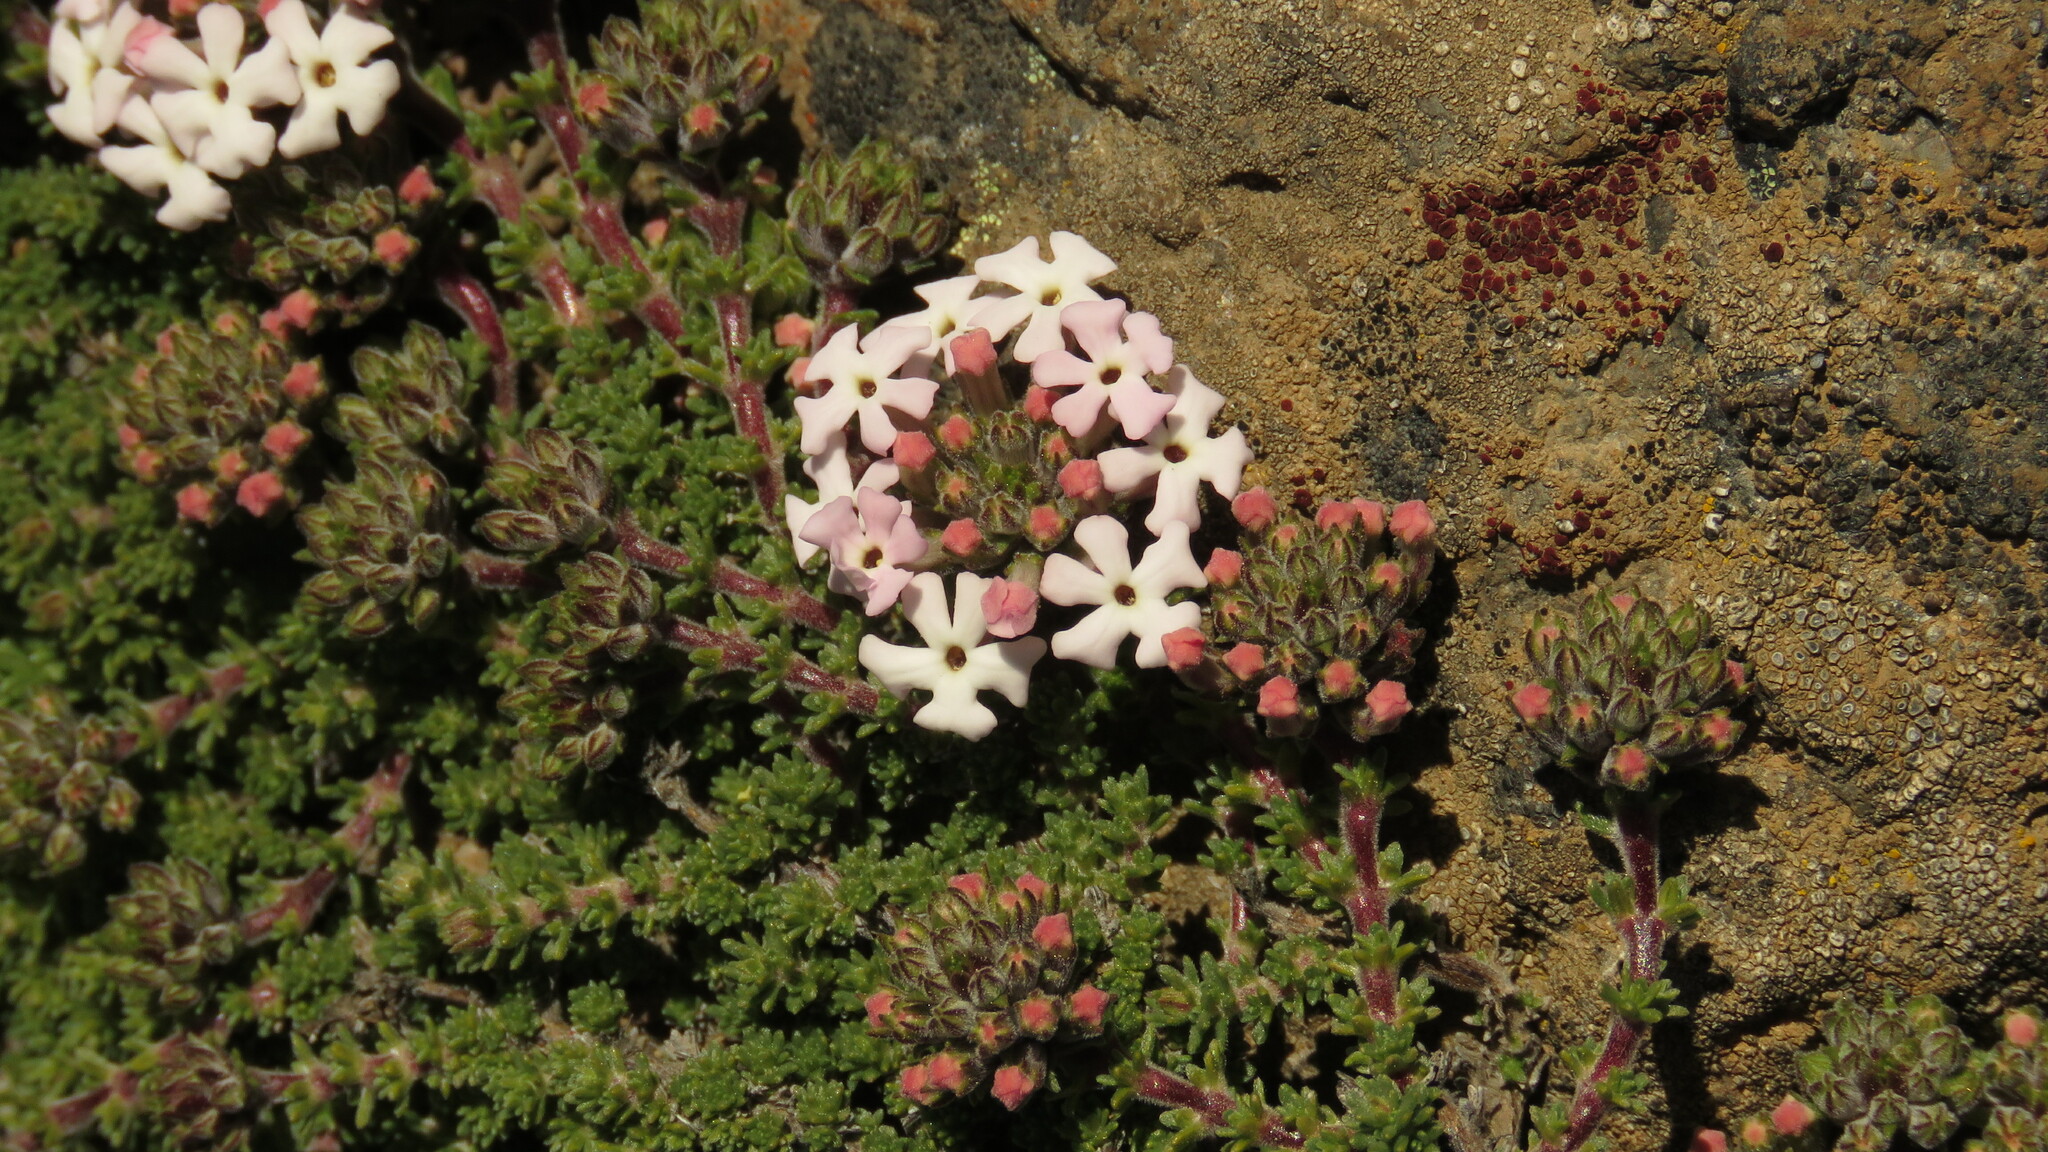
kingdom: Plantae
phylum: Tracheophyta
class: Magnoliopsida
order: Lamiales
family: Verbenaceae
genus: Junellia
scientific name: Junellia tridactylites
